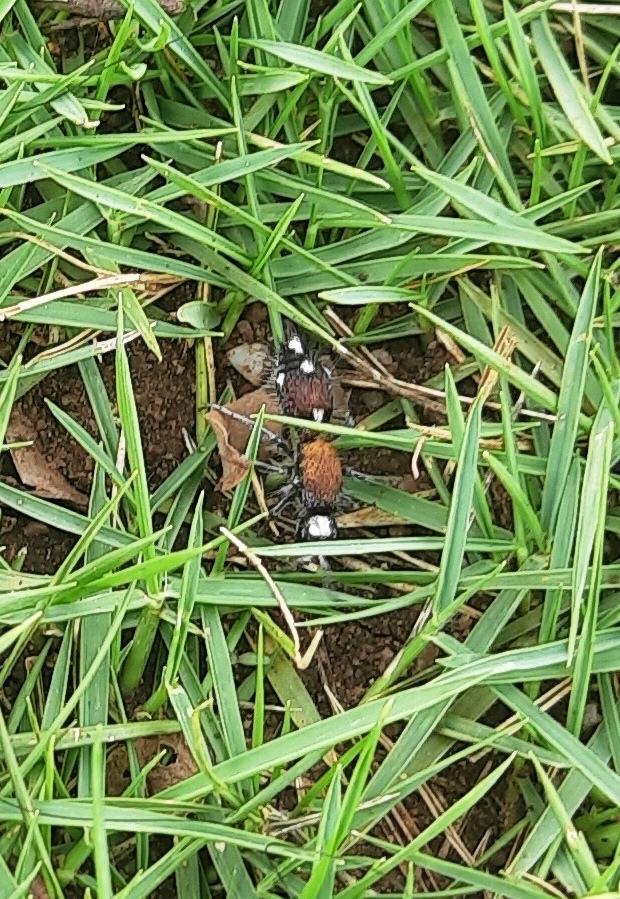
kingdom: Animalia
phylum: Arthropoda
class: Insecta
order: Hymenoptera
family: Mutillidae
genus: Dasylabris
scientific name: Dasylabris
